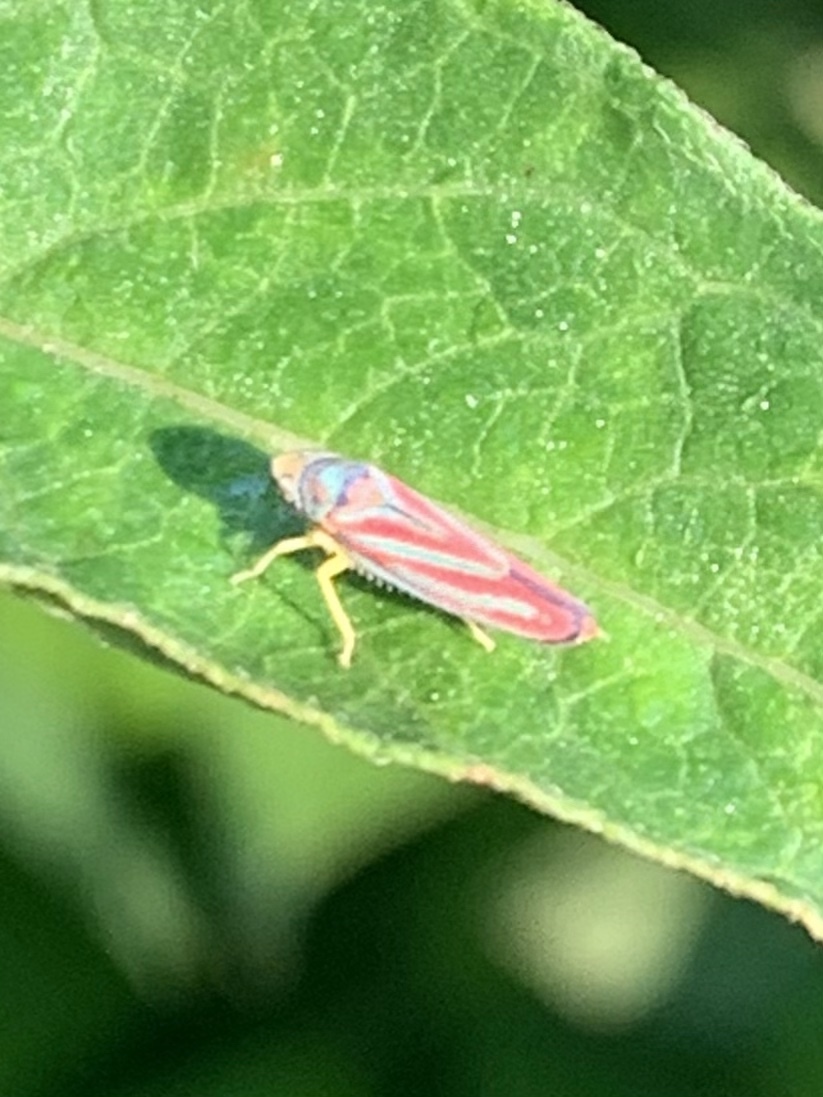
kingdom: Animalia
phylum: Arthropoda
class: Insecta
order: Hemiptera
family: Cicadellidae
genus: Graphocephala
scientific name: Graphocephala coccinea
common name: Candy-striped leafhopper
